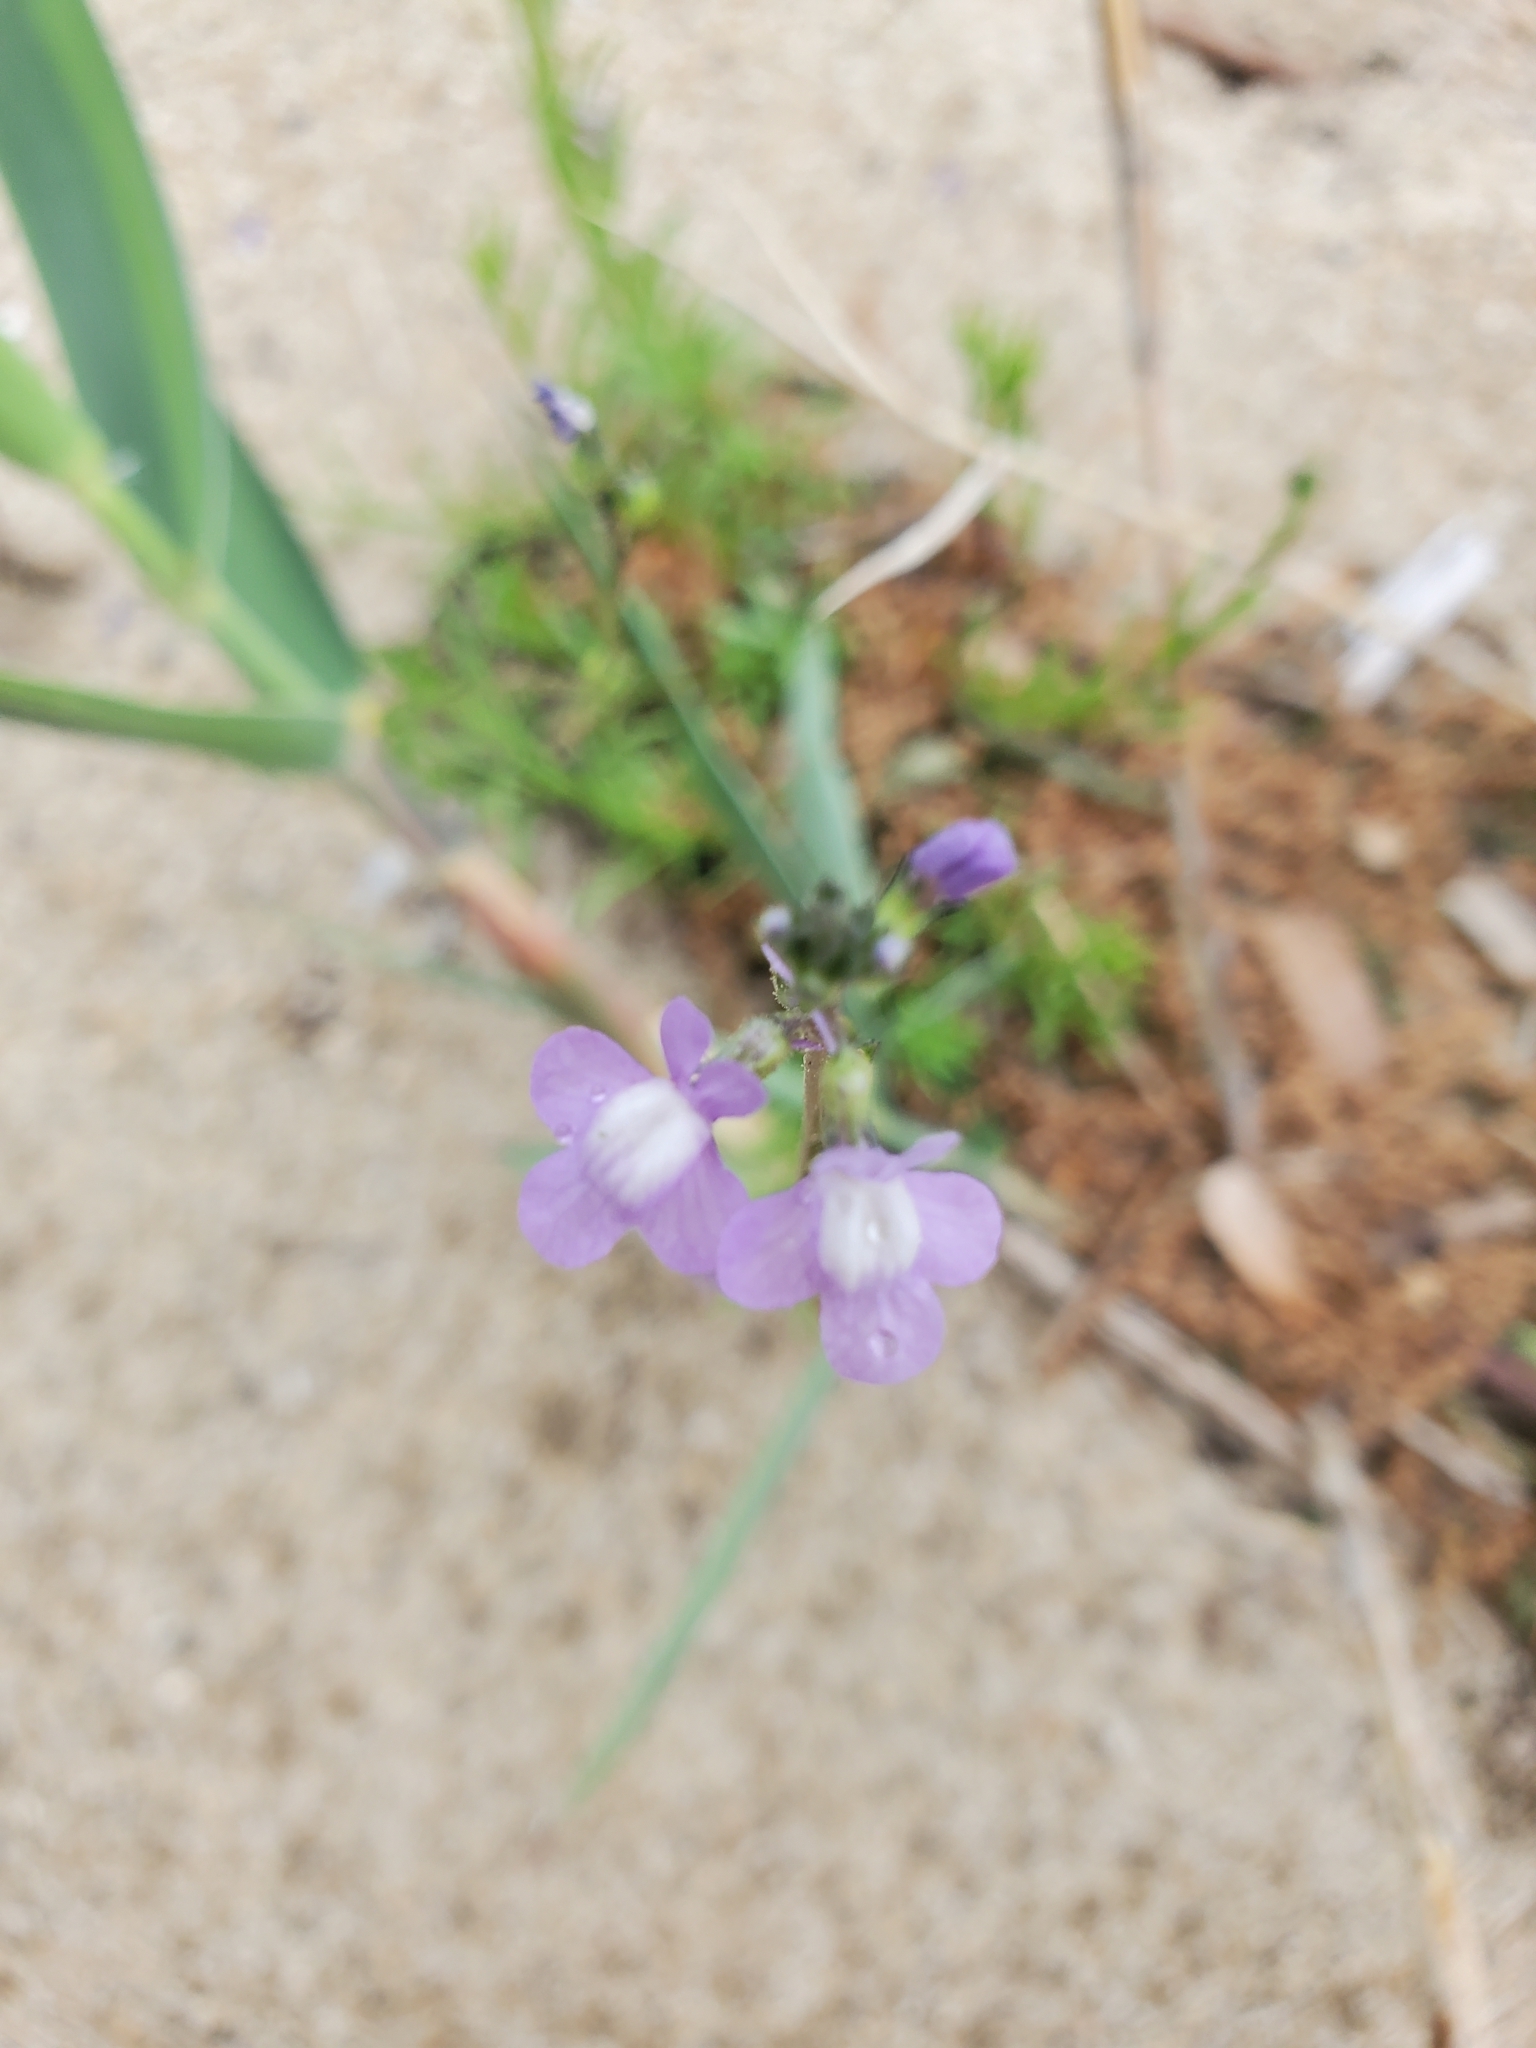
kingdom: Plantae
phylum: Tracheophyta
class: Magnoliopsida
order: Lamiales
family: Plantaginaceae
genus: Nuttallanthus
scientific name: Nuttallanthus canadensis
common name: Blue toadflax
